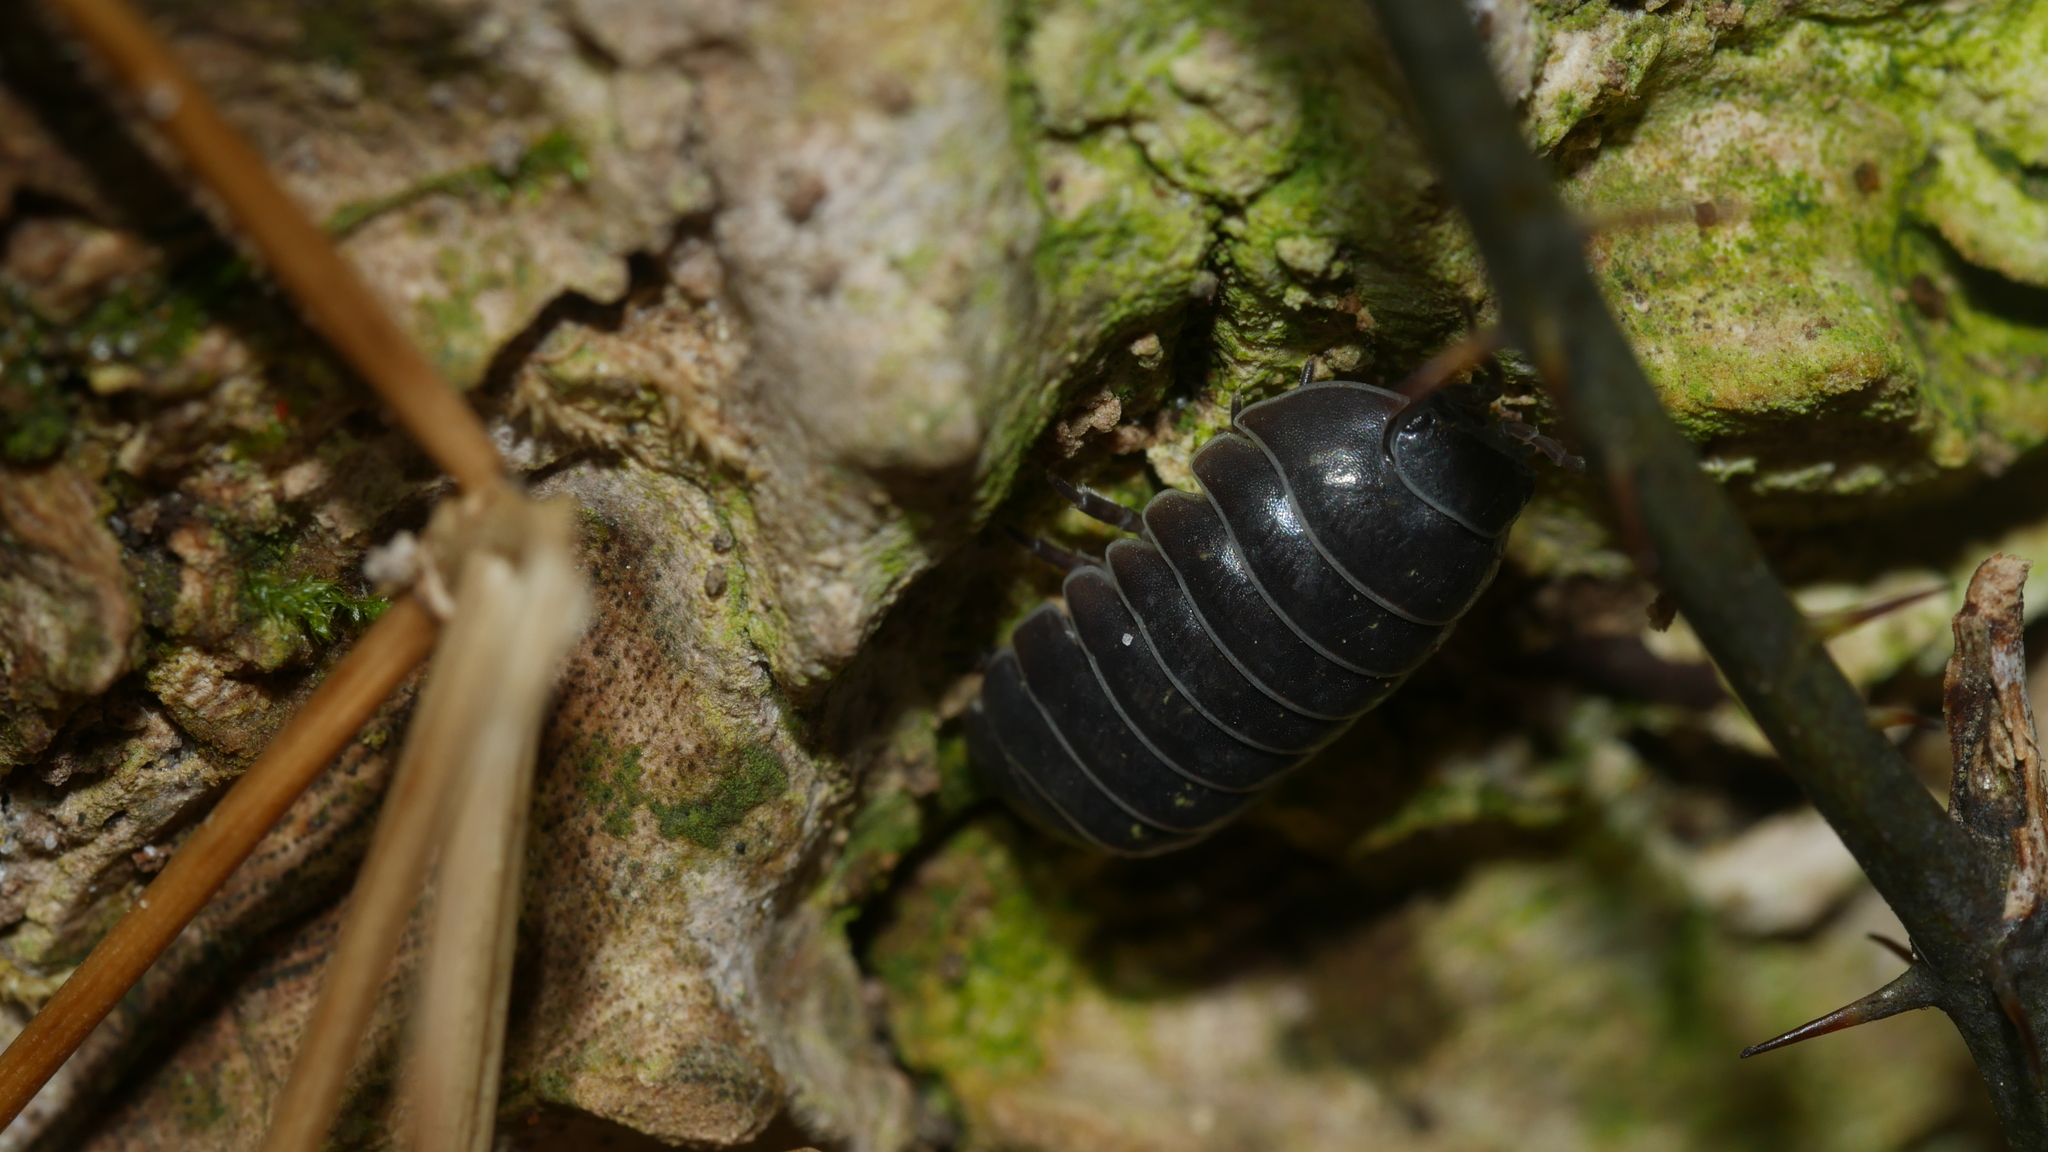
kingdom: Animalia
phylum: Arthropoda
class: Malacostraca
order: Isopoda
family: Armadillidiidae
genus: Armadillidium
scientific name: Armadillidium vulgare
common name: Common pill woodlouse
